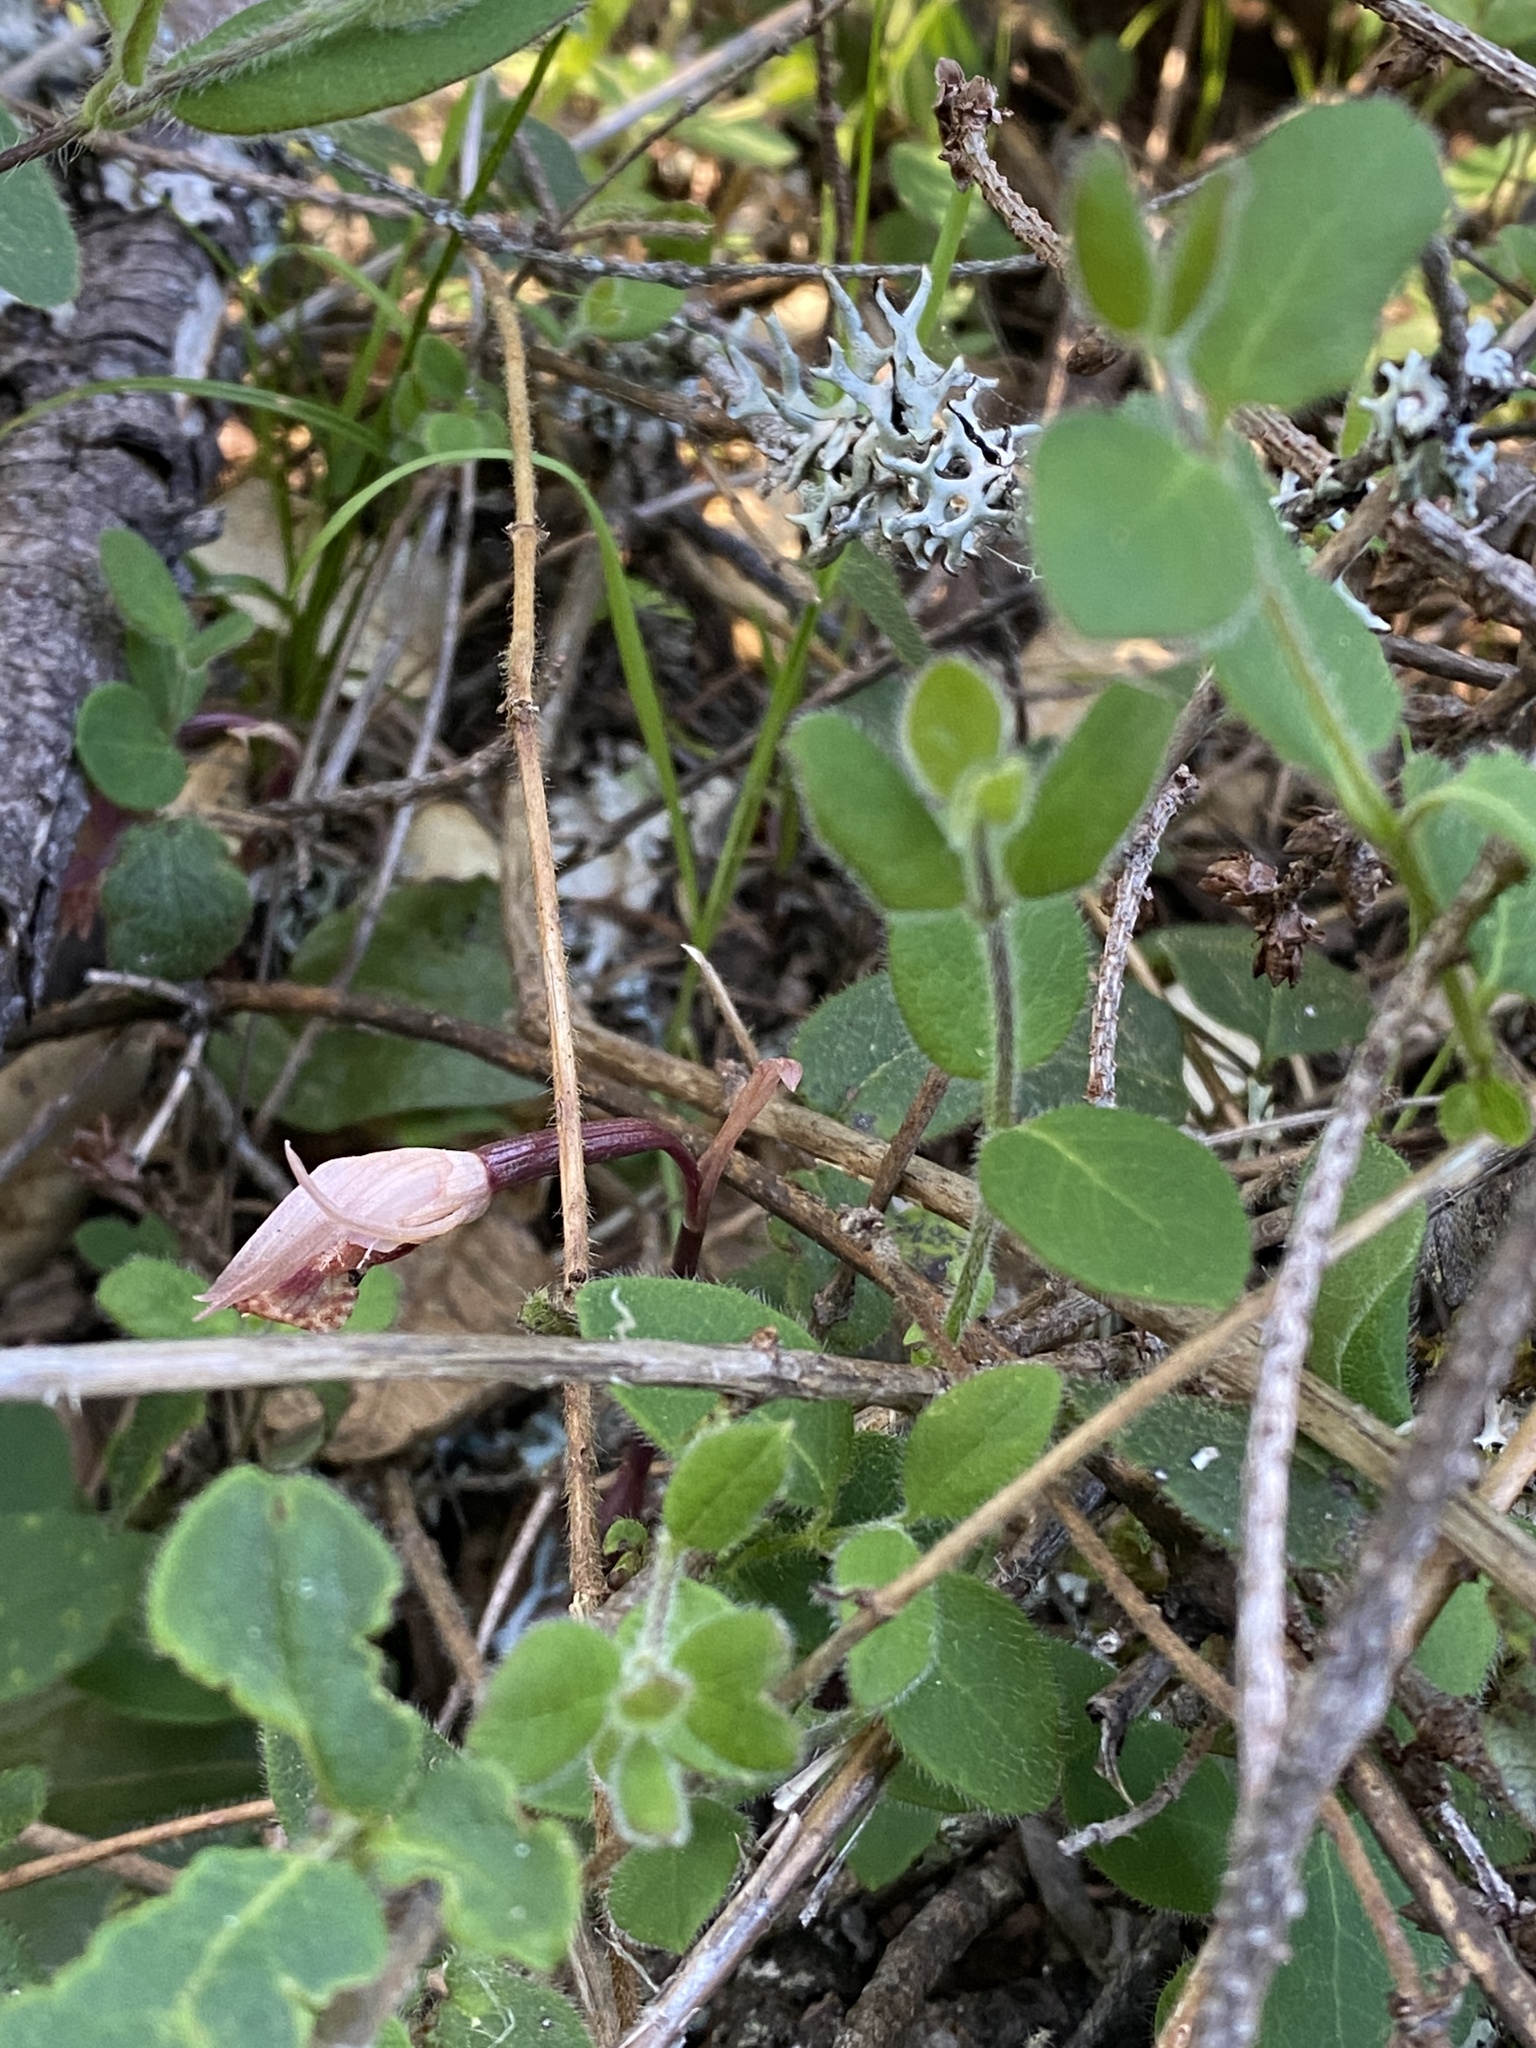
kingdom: Plantae
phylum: Tracheophyta
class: Liliopsida
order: Asparagales
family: Orchidaceae
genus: Calypso
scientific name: Calypso bulbosa
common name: Calypso
